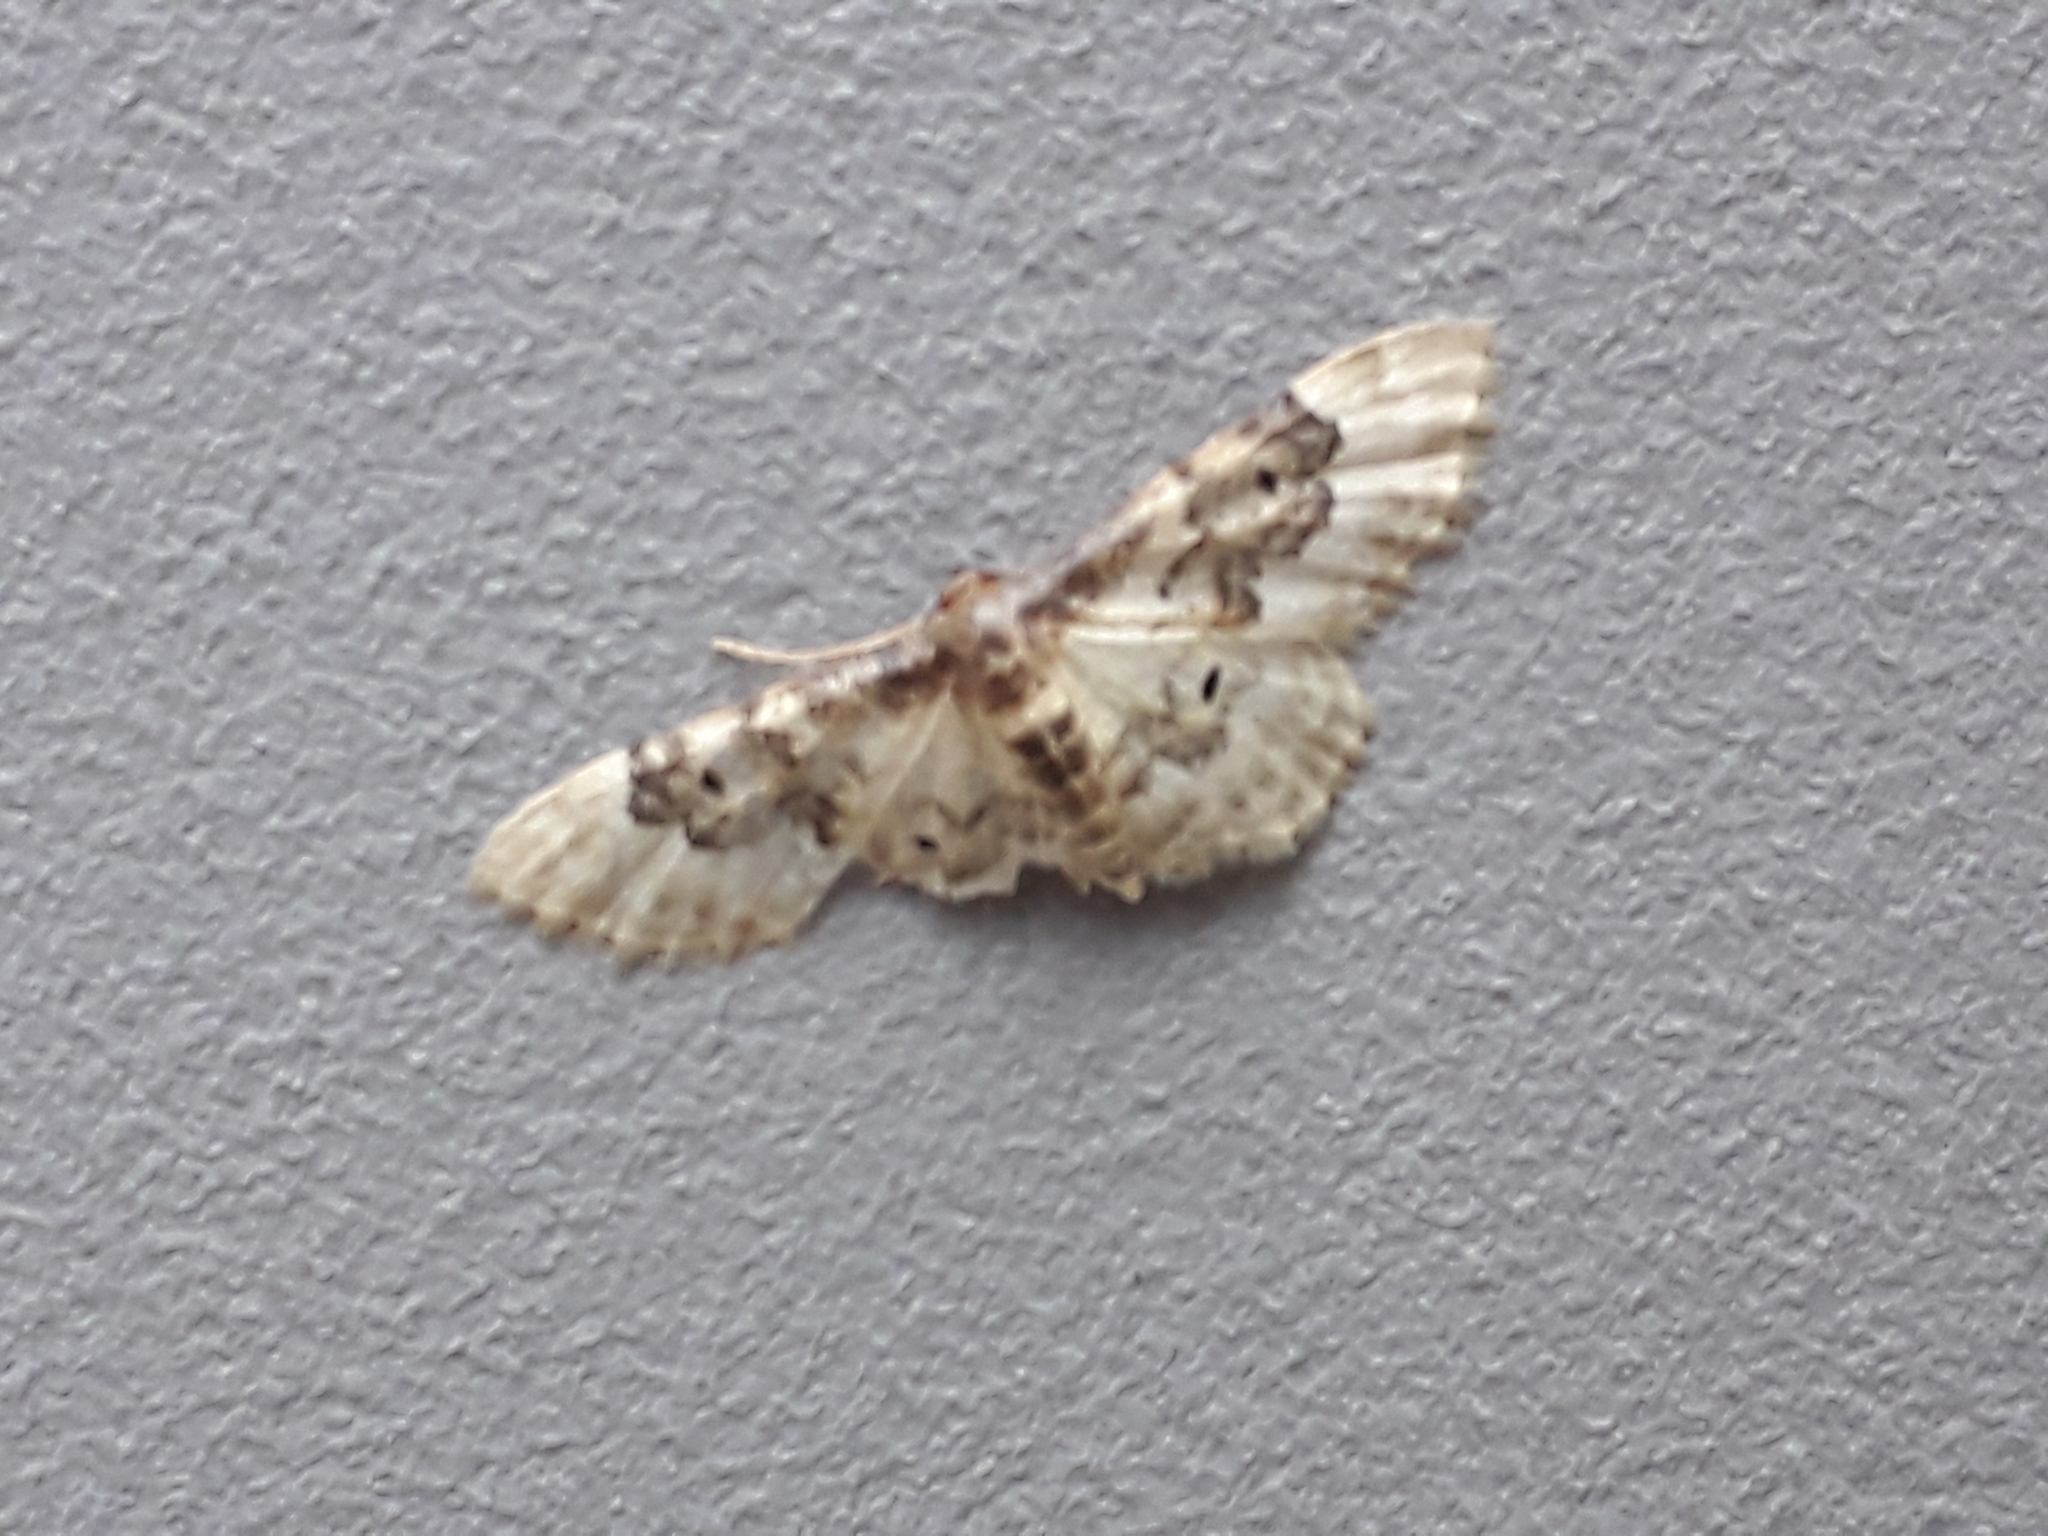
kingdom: Animalia
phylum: Arthropoda
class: Insecta
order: Lepidoptera
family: Geometridae
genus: Idaea
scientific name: Idaea rusticata
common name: Least carpet
